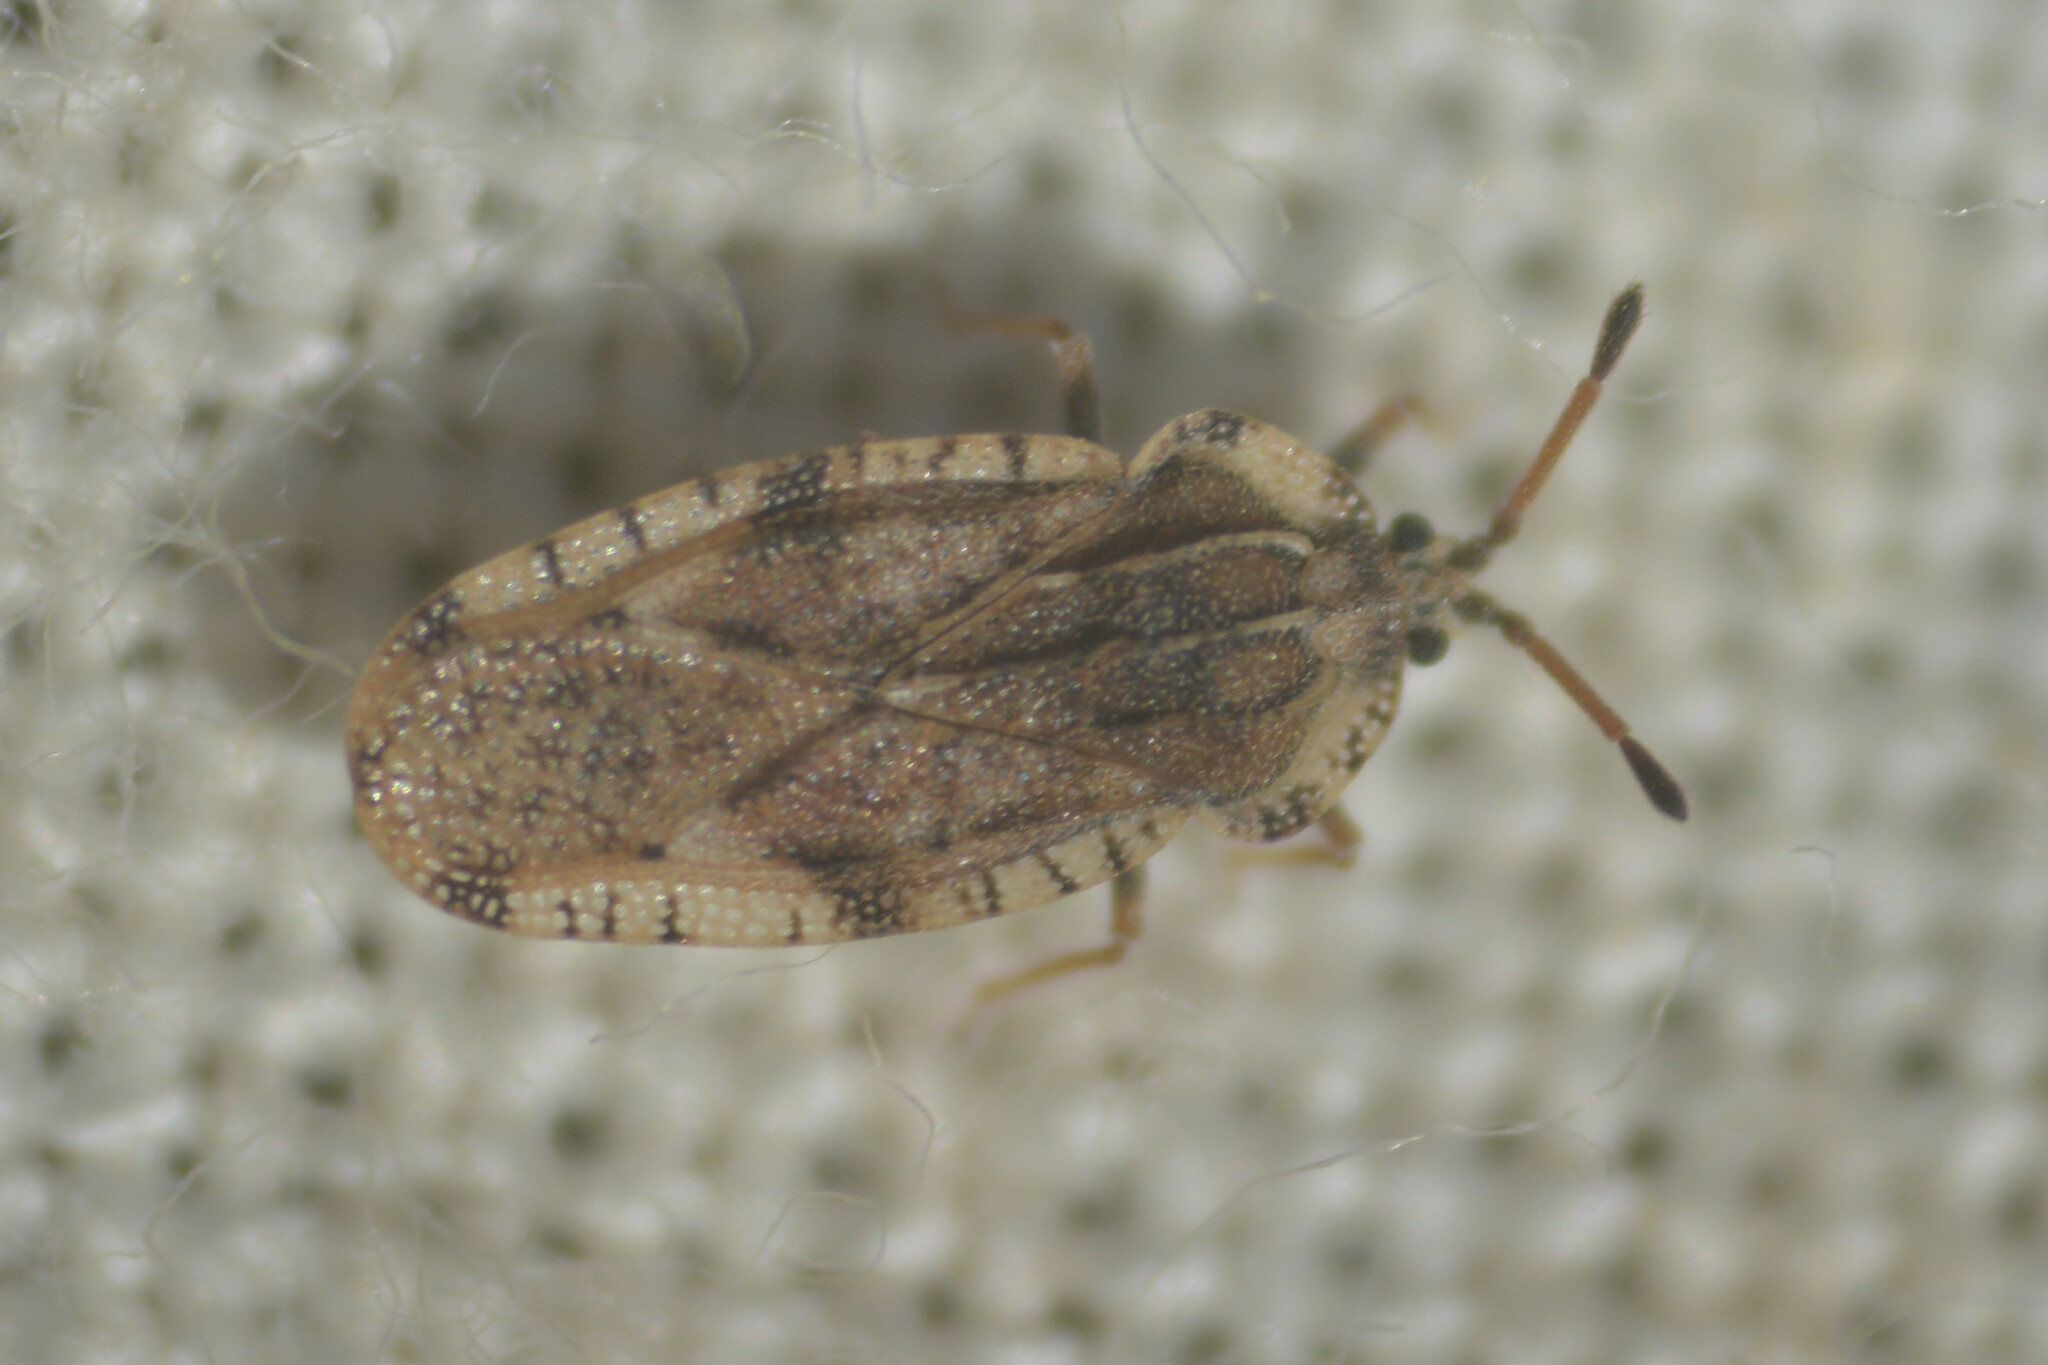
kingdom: Animalia
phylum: Arthropoda
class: Insecta
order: Hemiptera
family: Tingidae
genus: Tingis
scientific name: Tingis cardui
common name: Spear thistle lacebug
